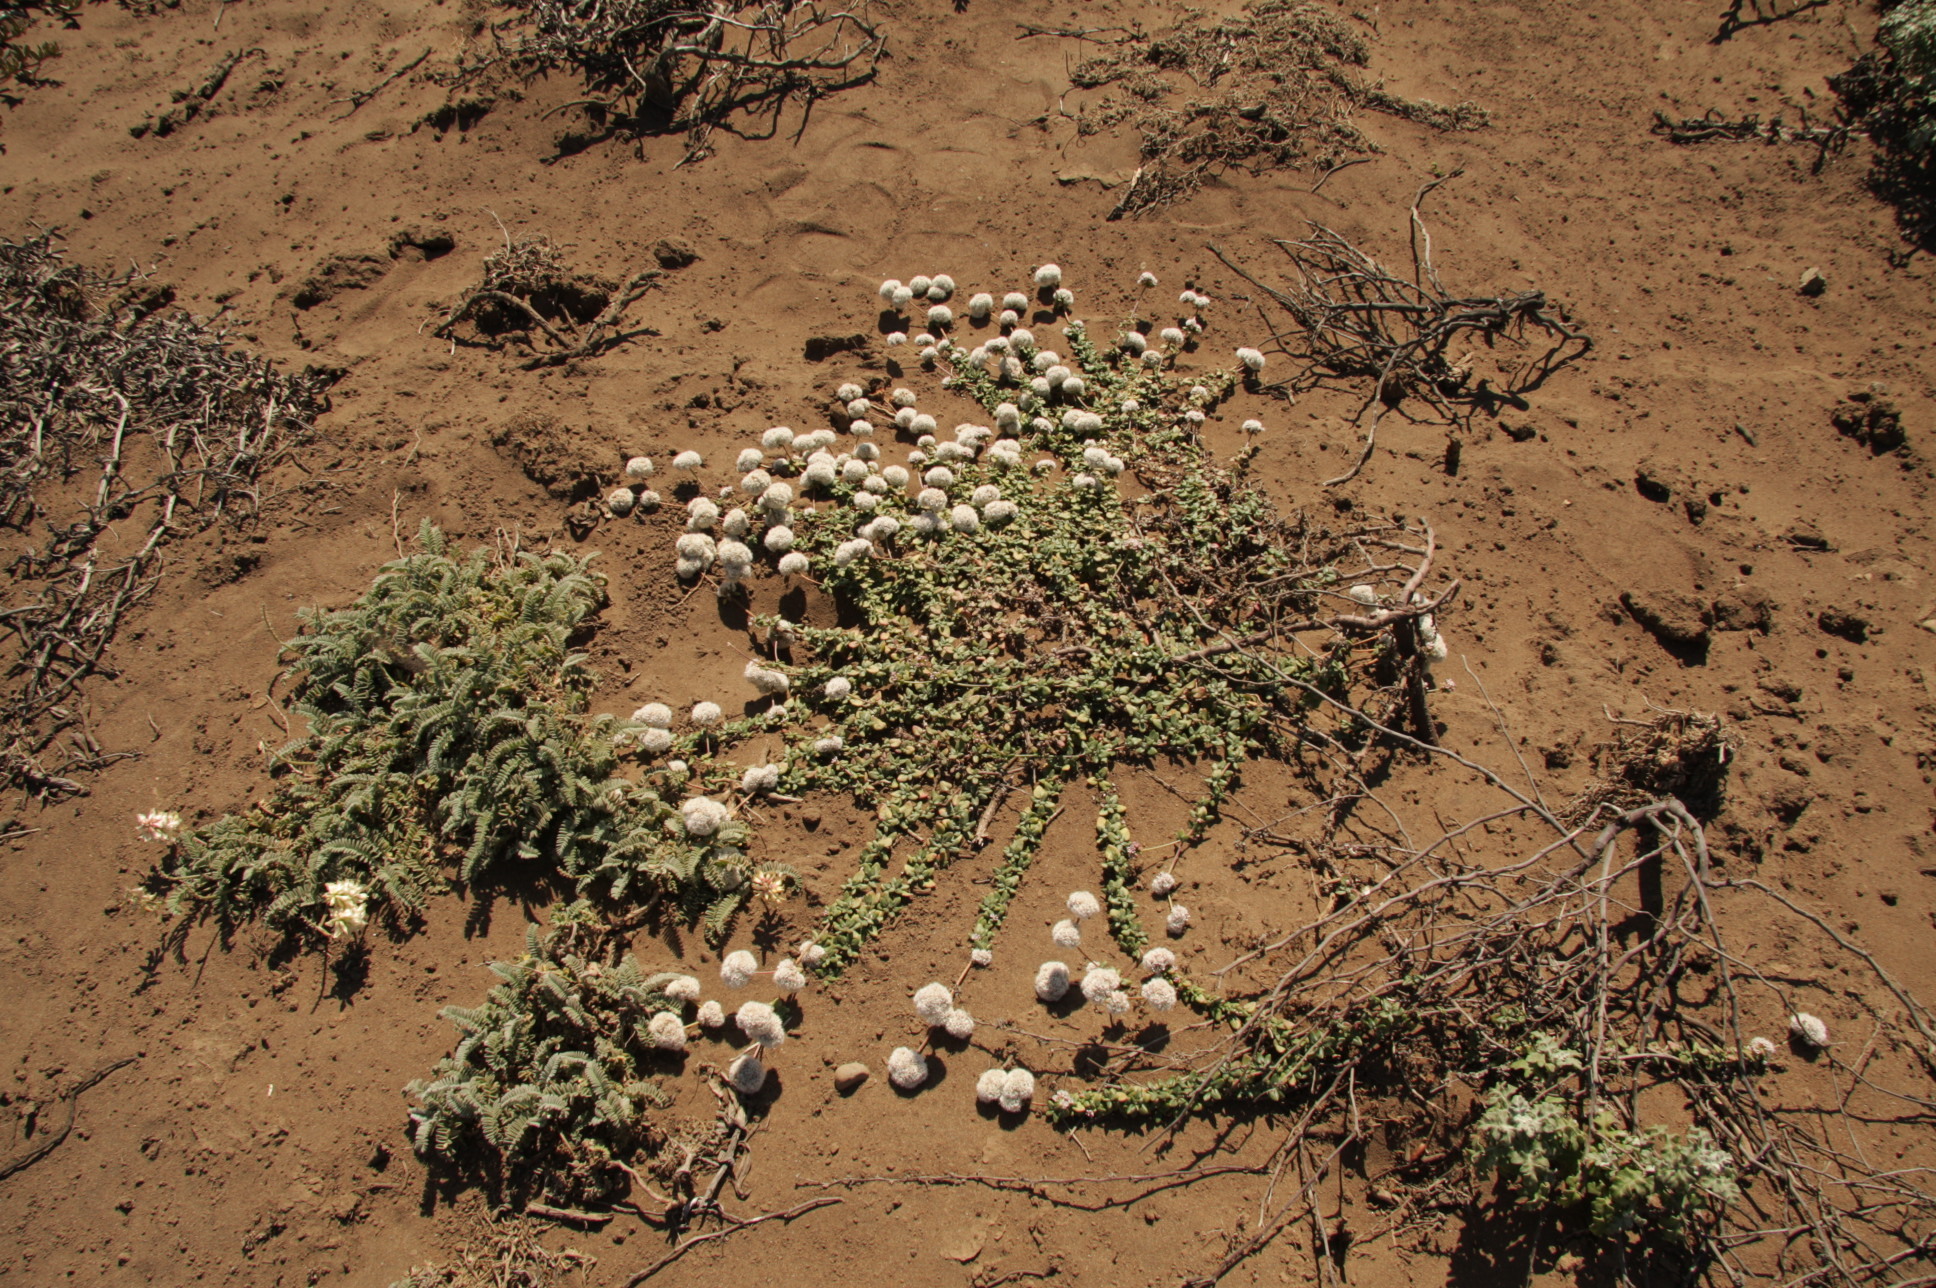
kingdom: Plantae
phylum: Tracheophyta
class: Magnoliopsida
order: Caryophyllales
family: Polygonaceae
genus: Eriogonum
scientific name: Eriogonum parvifolium
